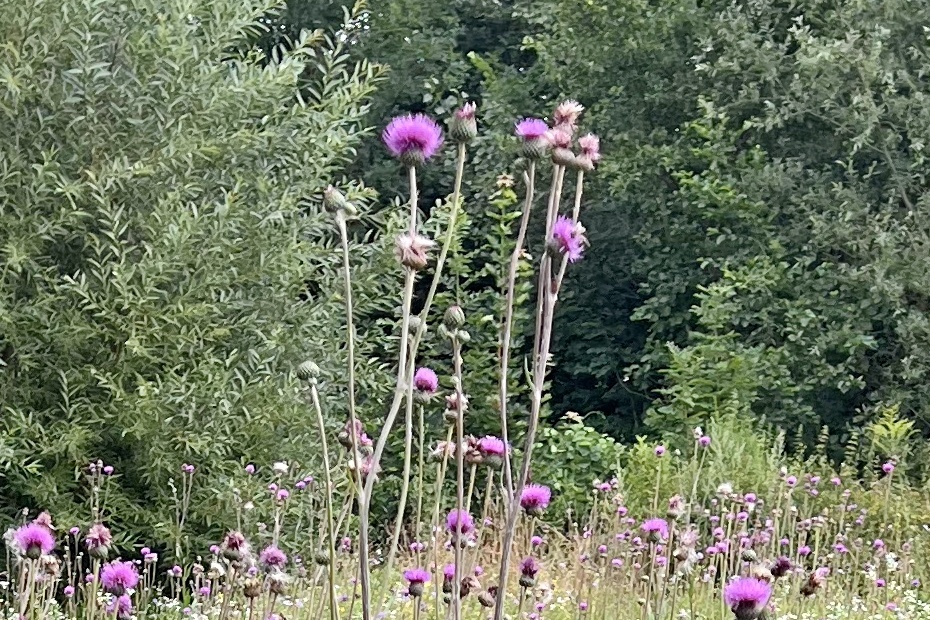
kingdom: Plantae
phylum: Tracheophyta
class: Magnoliopsida
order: Asterales
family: Asteraceae
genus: Cirsium
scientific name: Cirsium canum
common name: Queen anne's thistle
